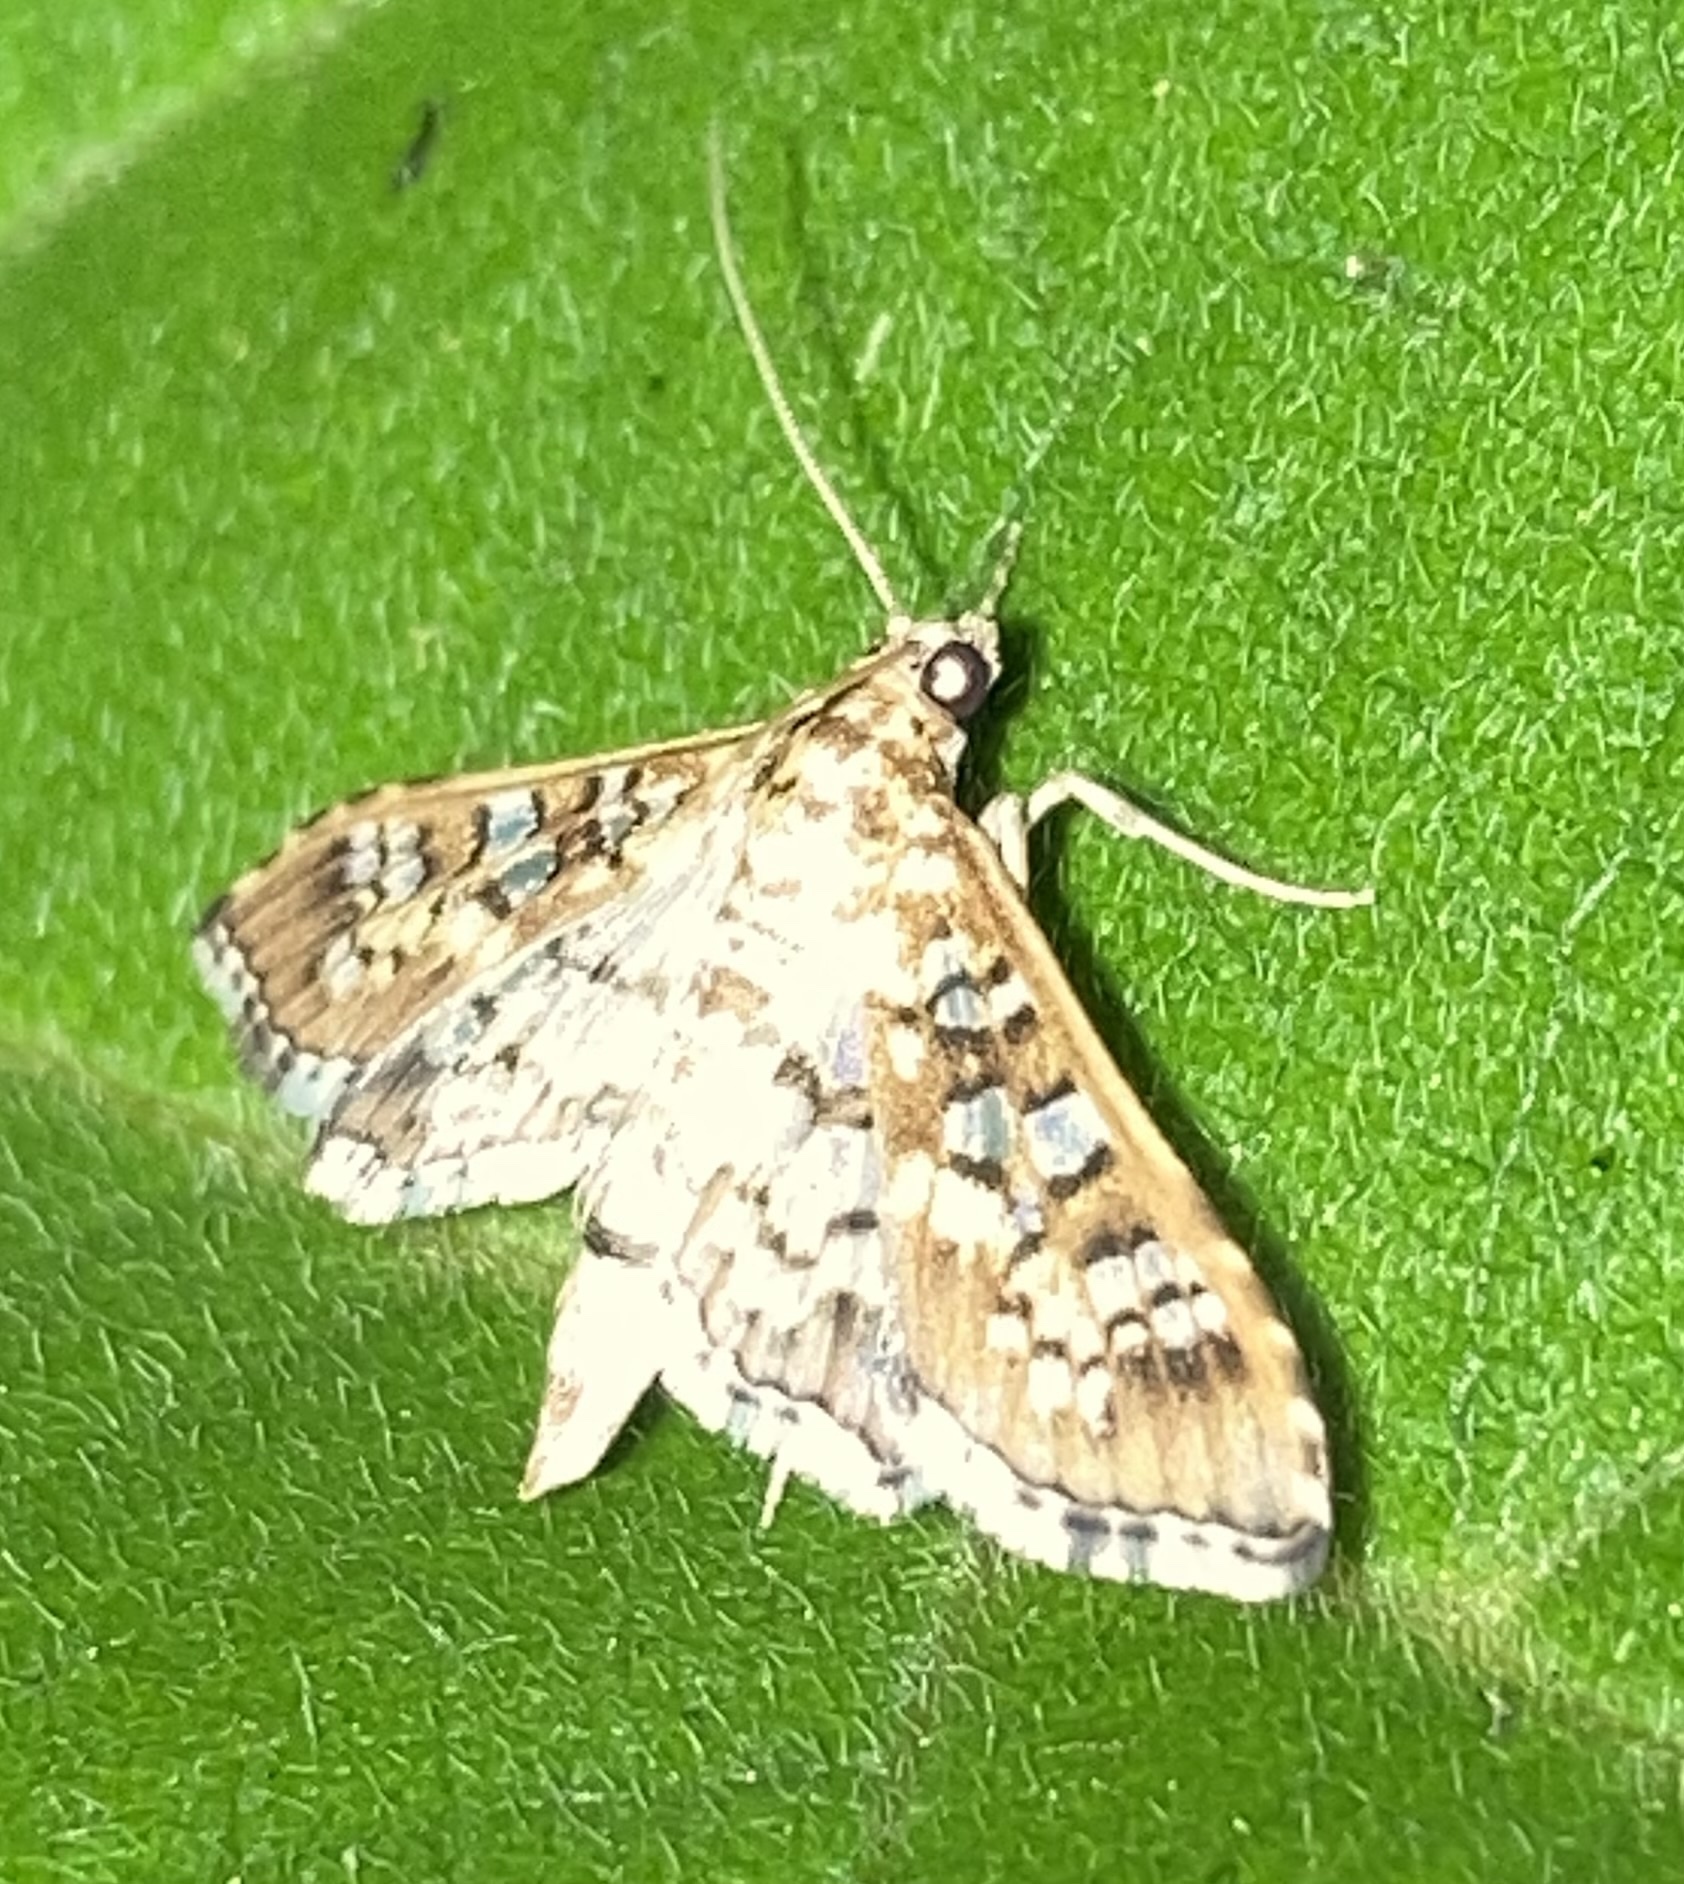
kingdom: Animalia
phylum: Arthropoda
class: Insecta
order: Lepidoptera
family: Crambidae
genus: Samea
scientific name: Samea ecclesialis
